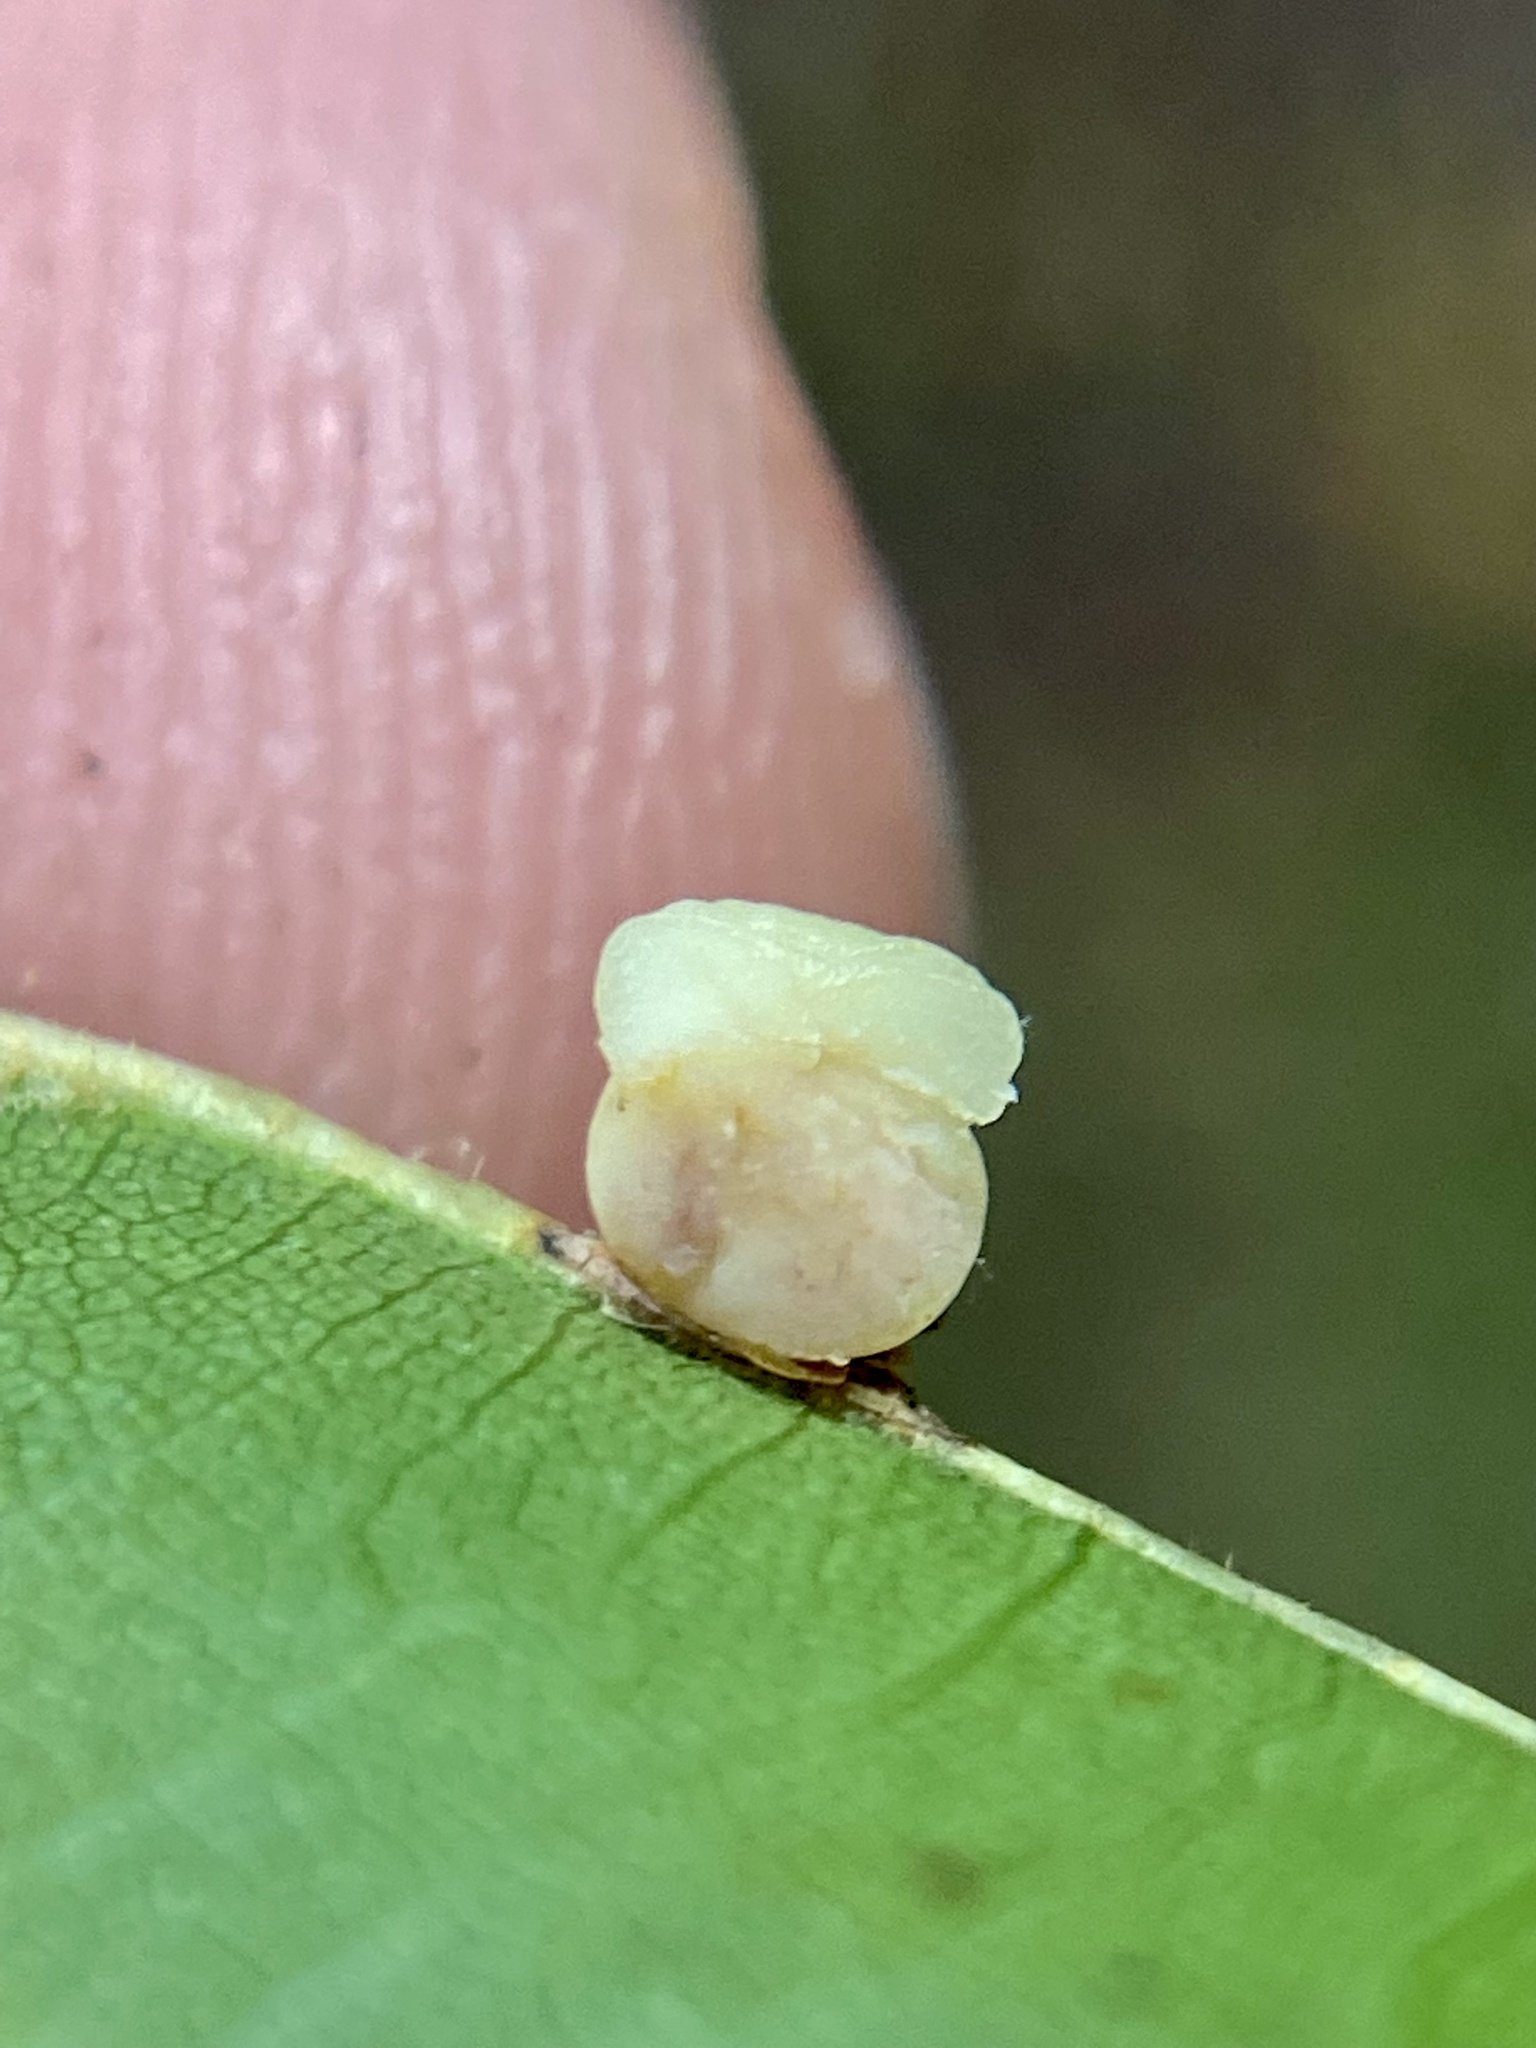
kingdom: Animalia
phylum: Arthropoda
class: Insecta
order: Hymenoptera
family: Cynipidae
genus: Kokkocynips
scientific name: Kokkocynips rileyi
